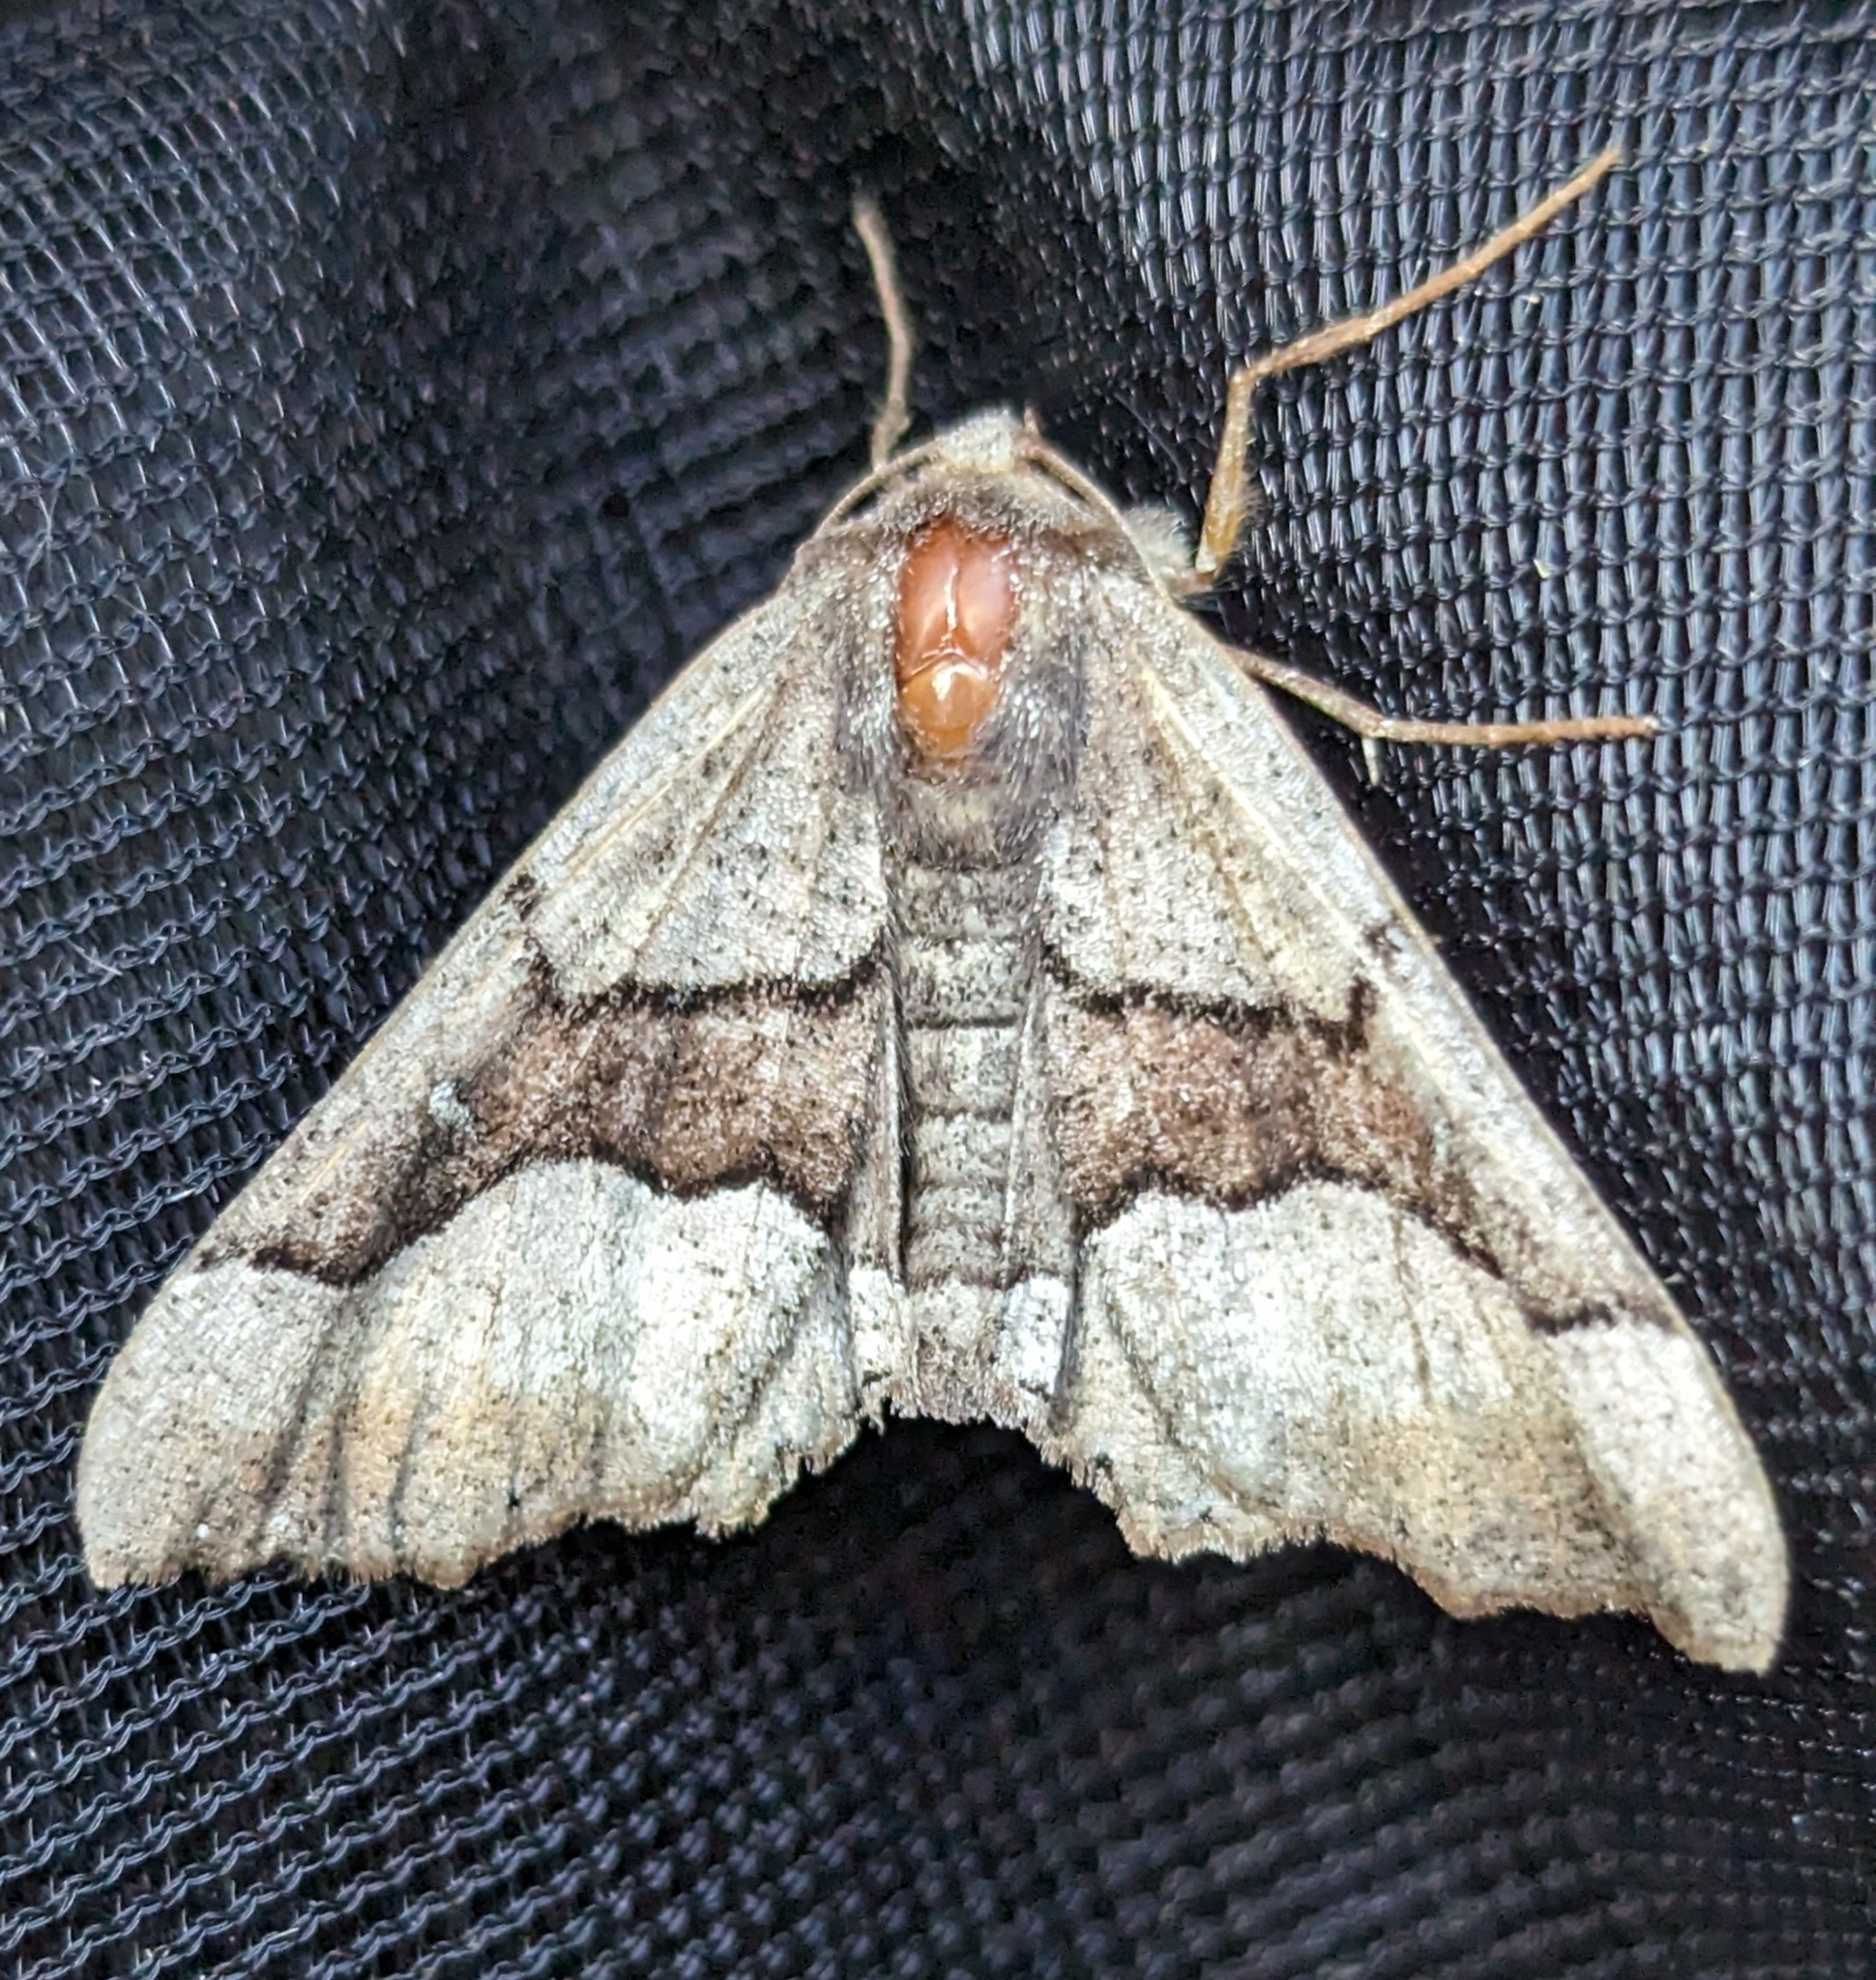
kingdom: Animalia
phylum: Arthropoda
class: Insecta
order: Lepidoptera
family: Geometridae
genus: Pero
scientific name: Pero behrensaria
